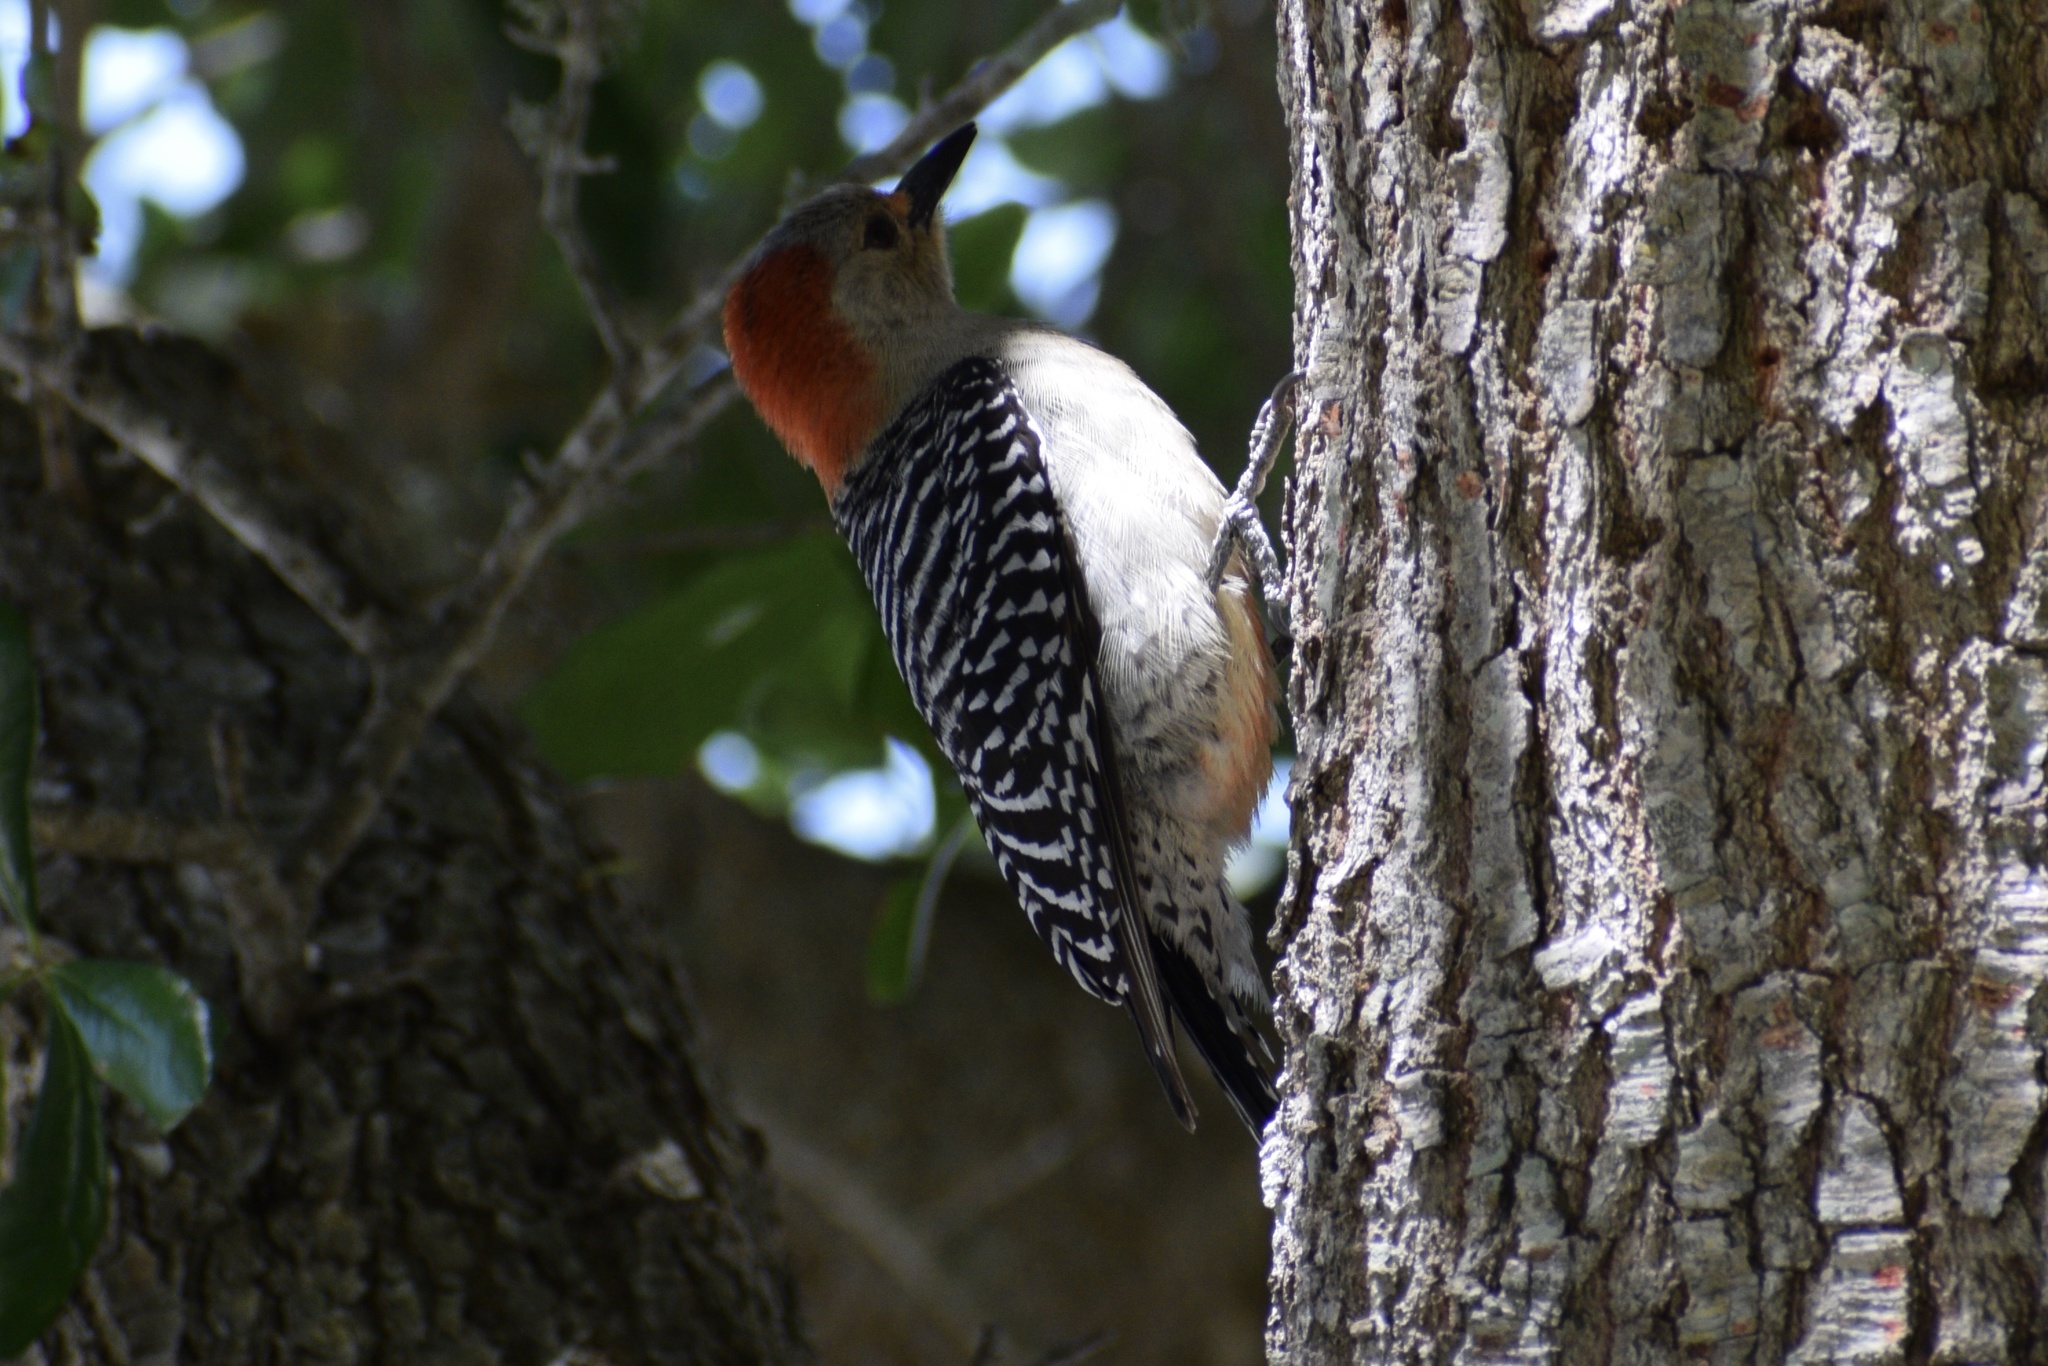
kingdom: Animalia
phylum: Chordata
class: Aves
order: Piciformes
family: Picidae
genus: Melanerpes
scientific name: Melanerpes carolinus
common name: Red-bellied woodpecker
